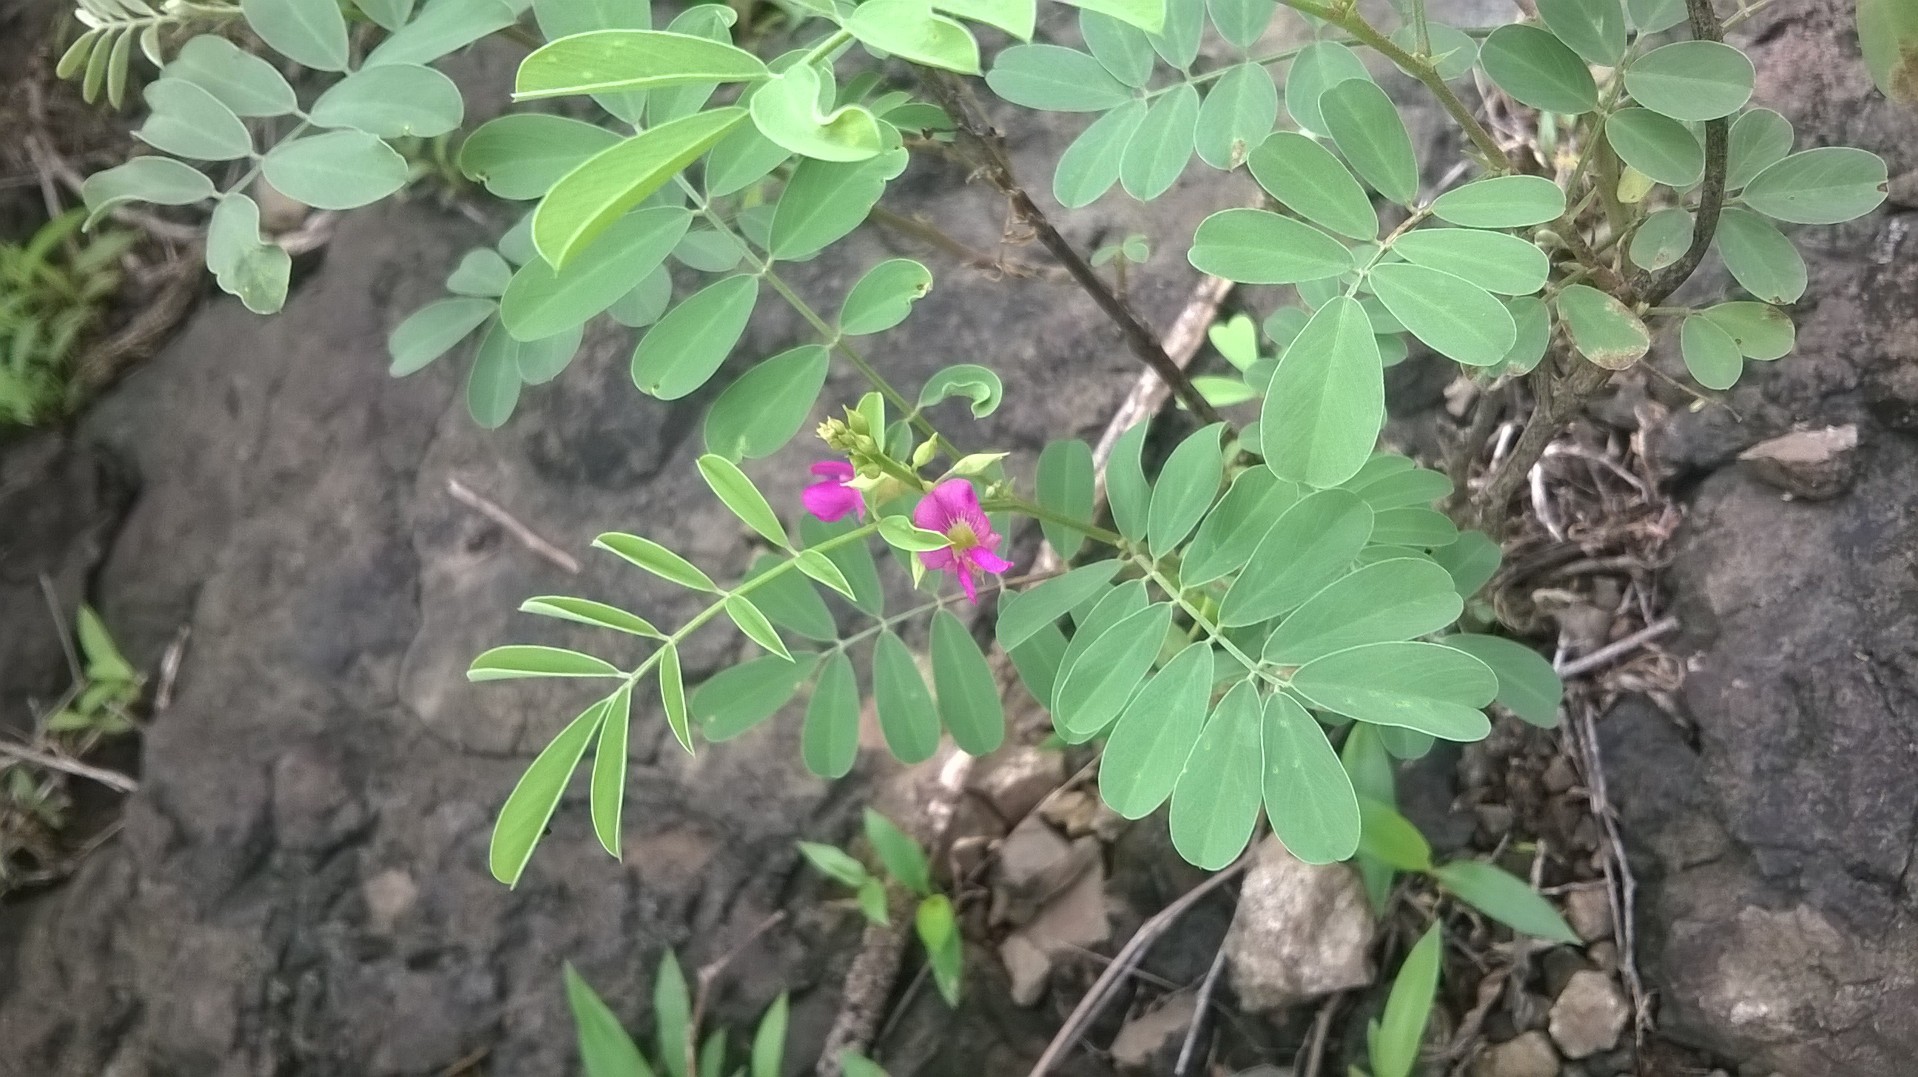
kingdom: Plantae
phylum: Tracheophyta
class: Magnoliopsida
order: Fabales
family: Fabaceae
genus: Tephrosia
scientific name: Tephrosia rosea
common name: Flinders river-poison
